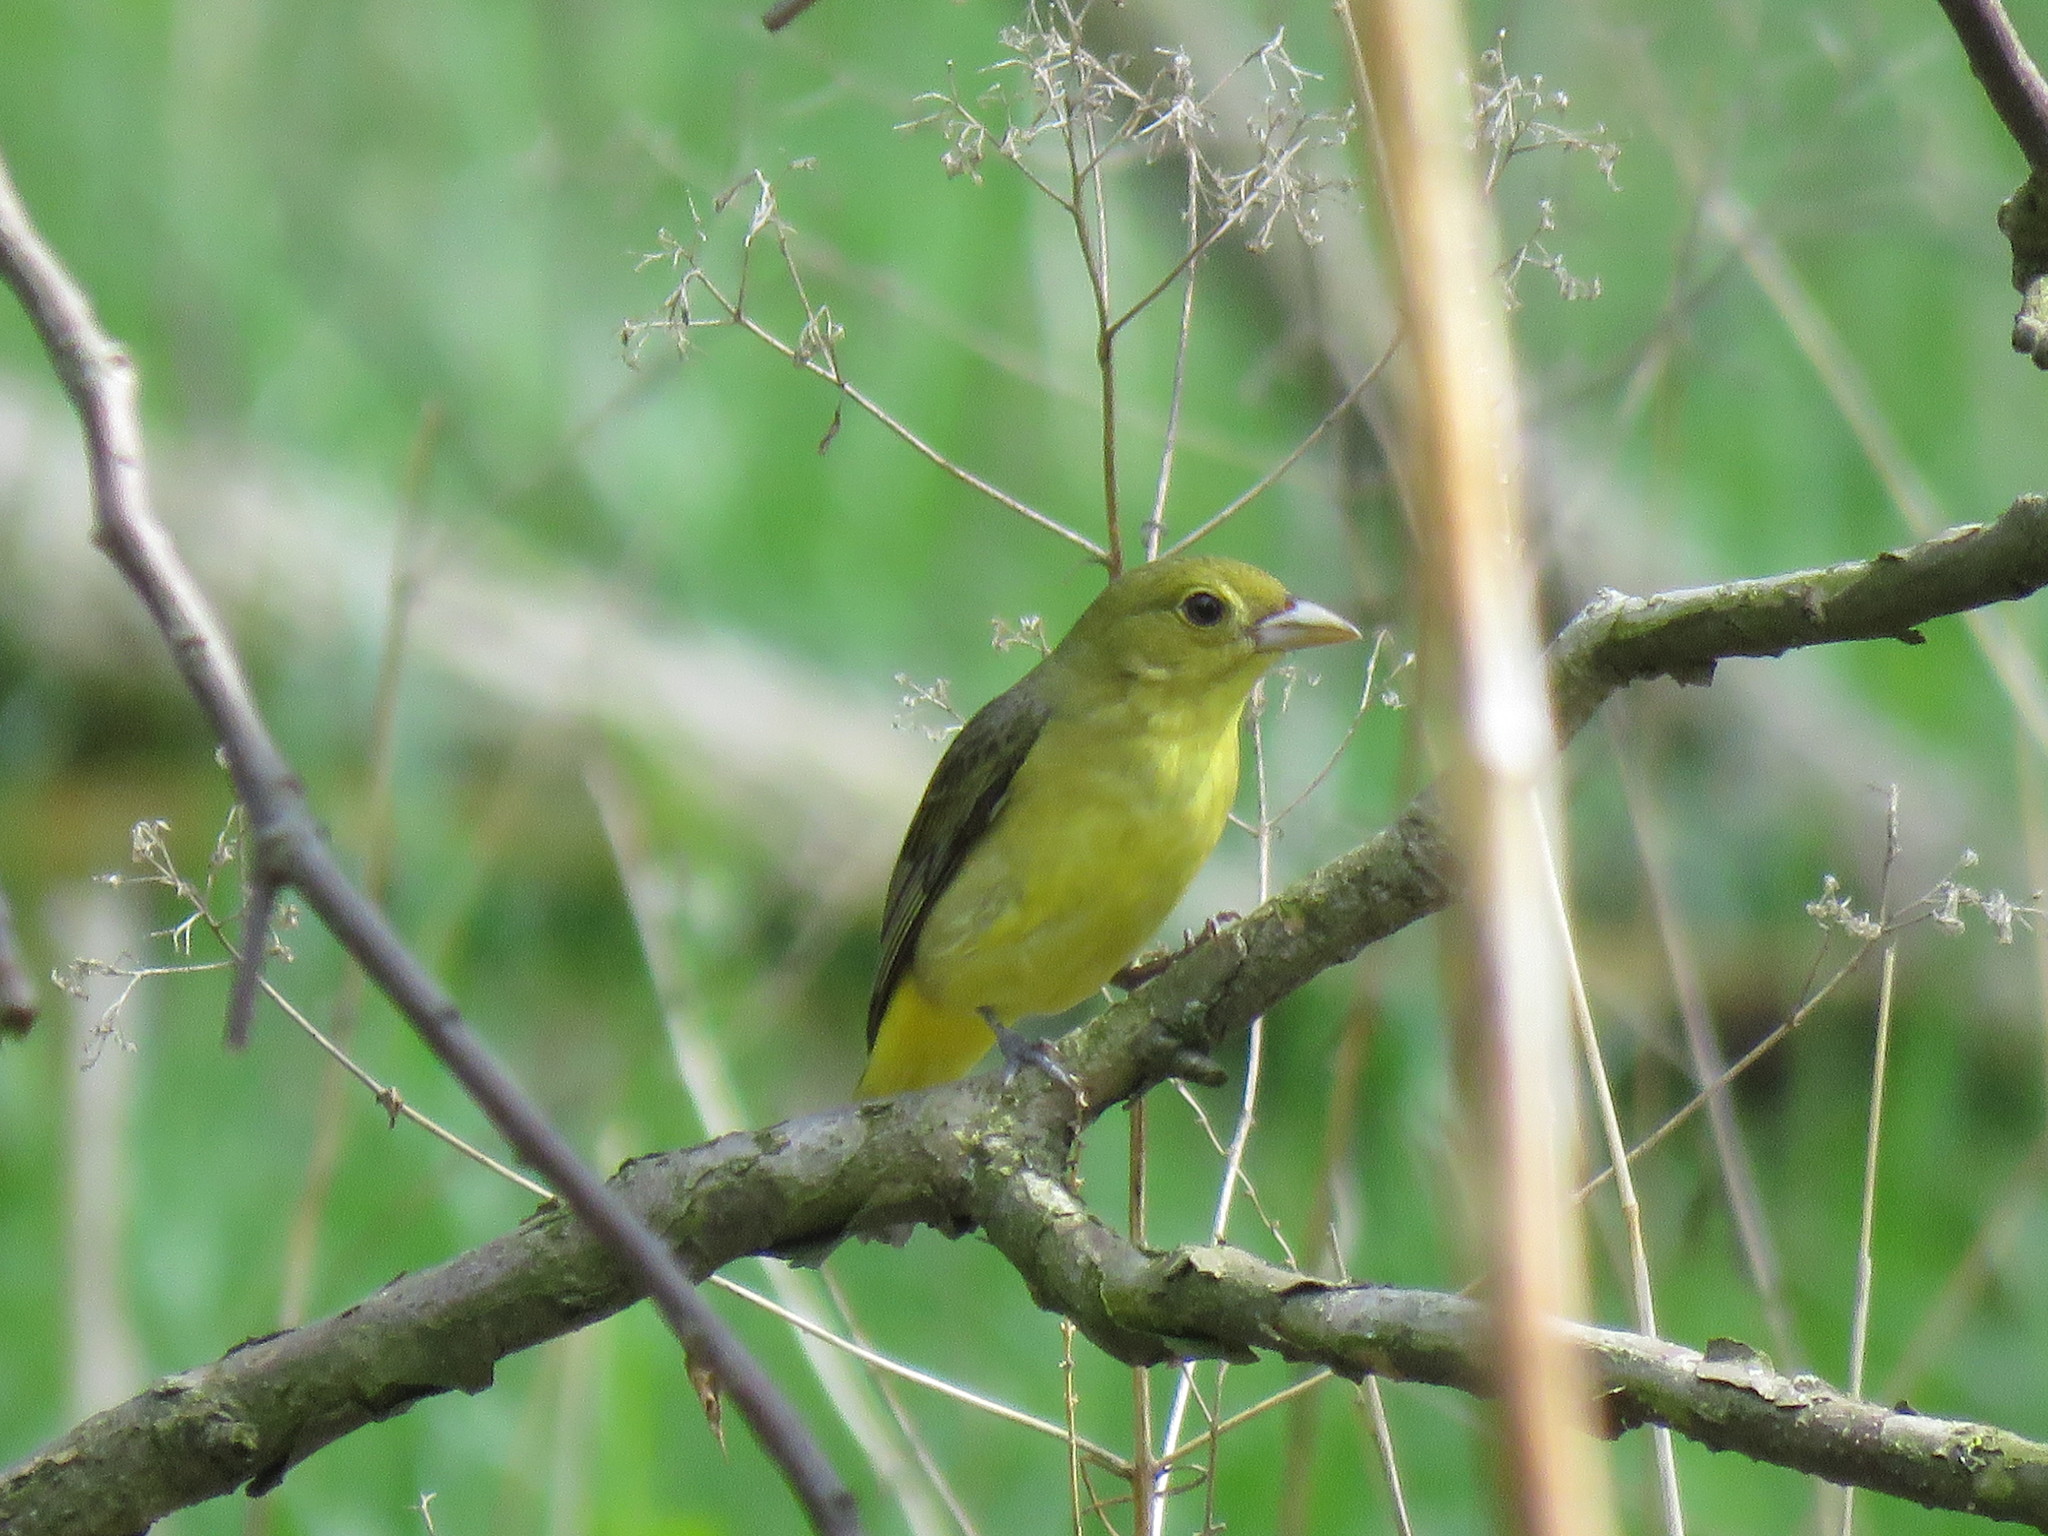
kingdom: Animalia
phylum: Chordata
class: Aves
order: Passeriformes
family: Cardinalidae
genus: Piranga
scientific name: Piranga olivacea
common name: Scarlet tanager
